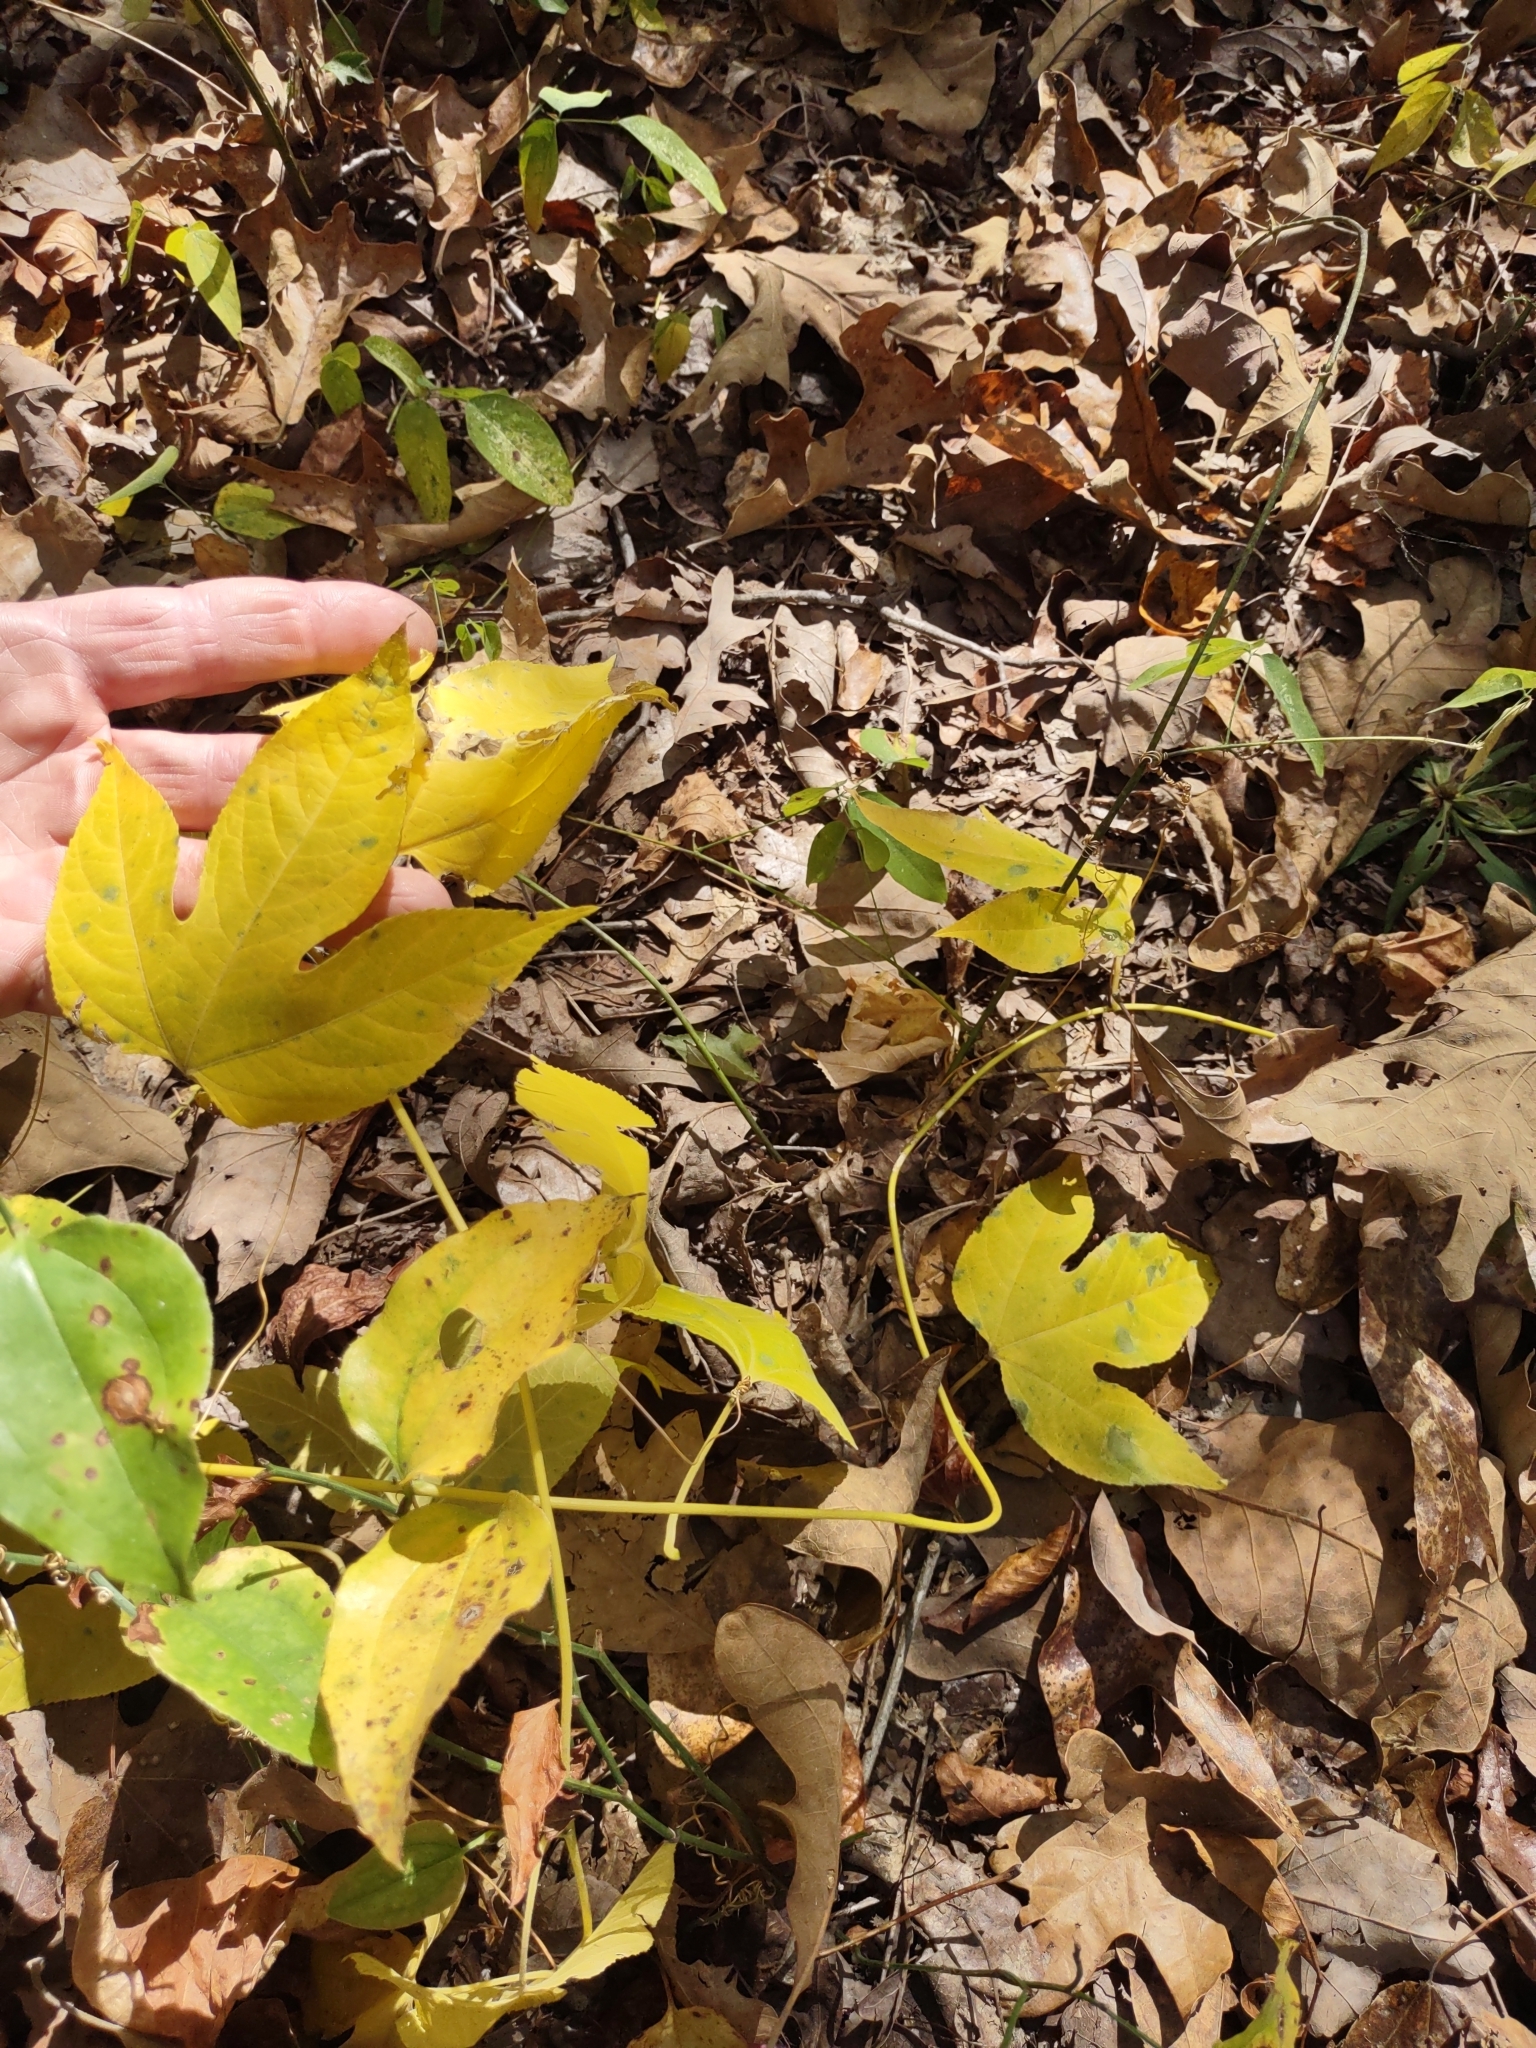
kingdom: Plantae
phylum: Tracheophyta
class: Magnoliopsida
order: Malpighiales
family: Passifloraceae
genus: Passiflora
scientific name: Passiflora incarnata
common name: Apricot-vine
